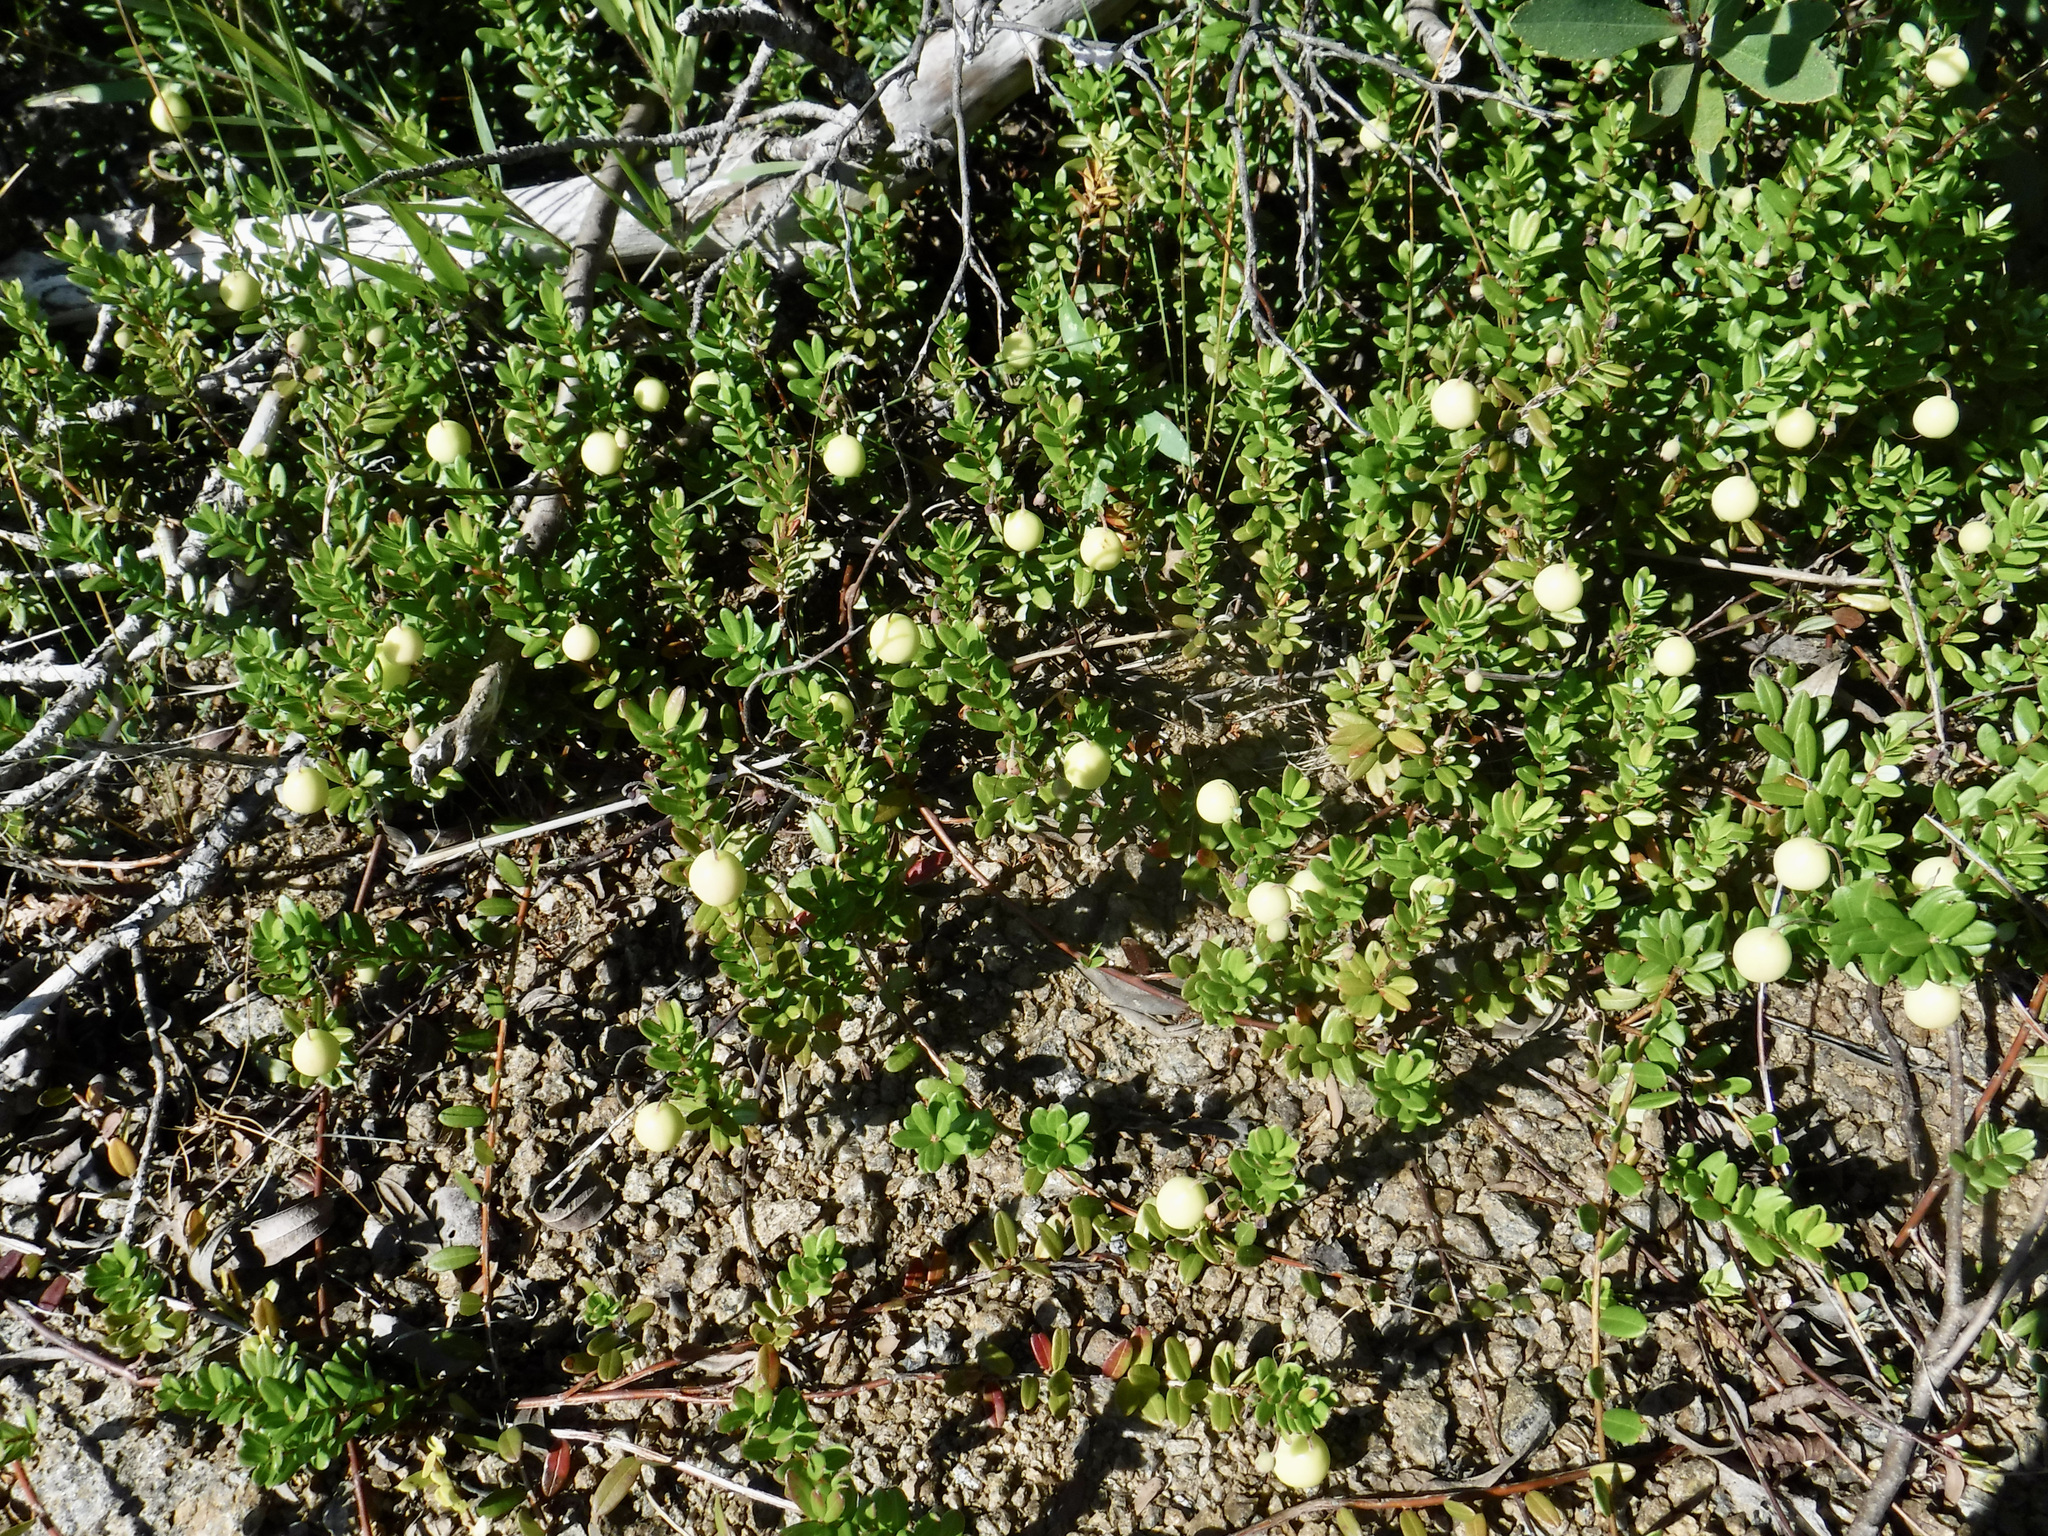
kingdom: Plantae
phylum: Tracheophyta
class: Magnoliopsida
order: Ericales
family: Ericaceae
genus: Vaccinium
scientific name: Vaccinium macrocarpon
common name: American cranberry
